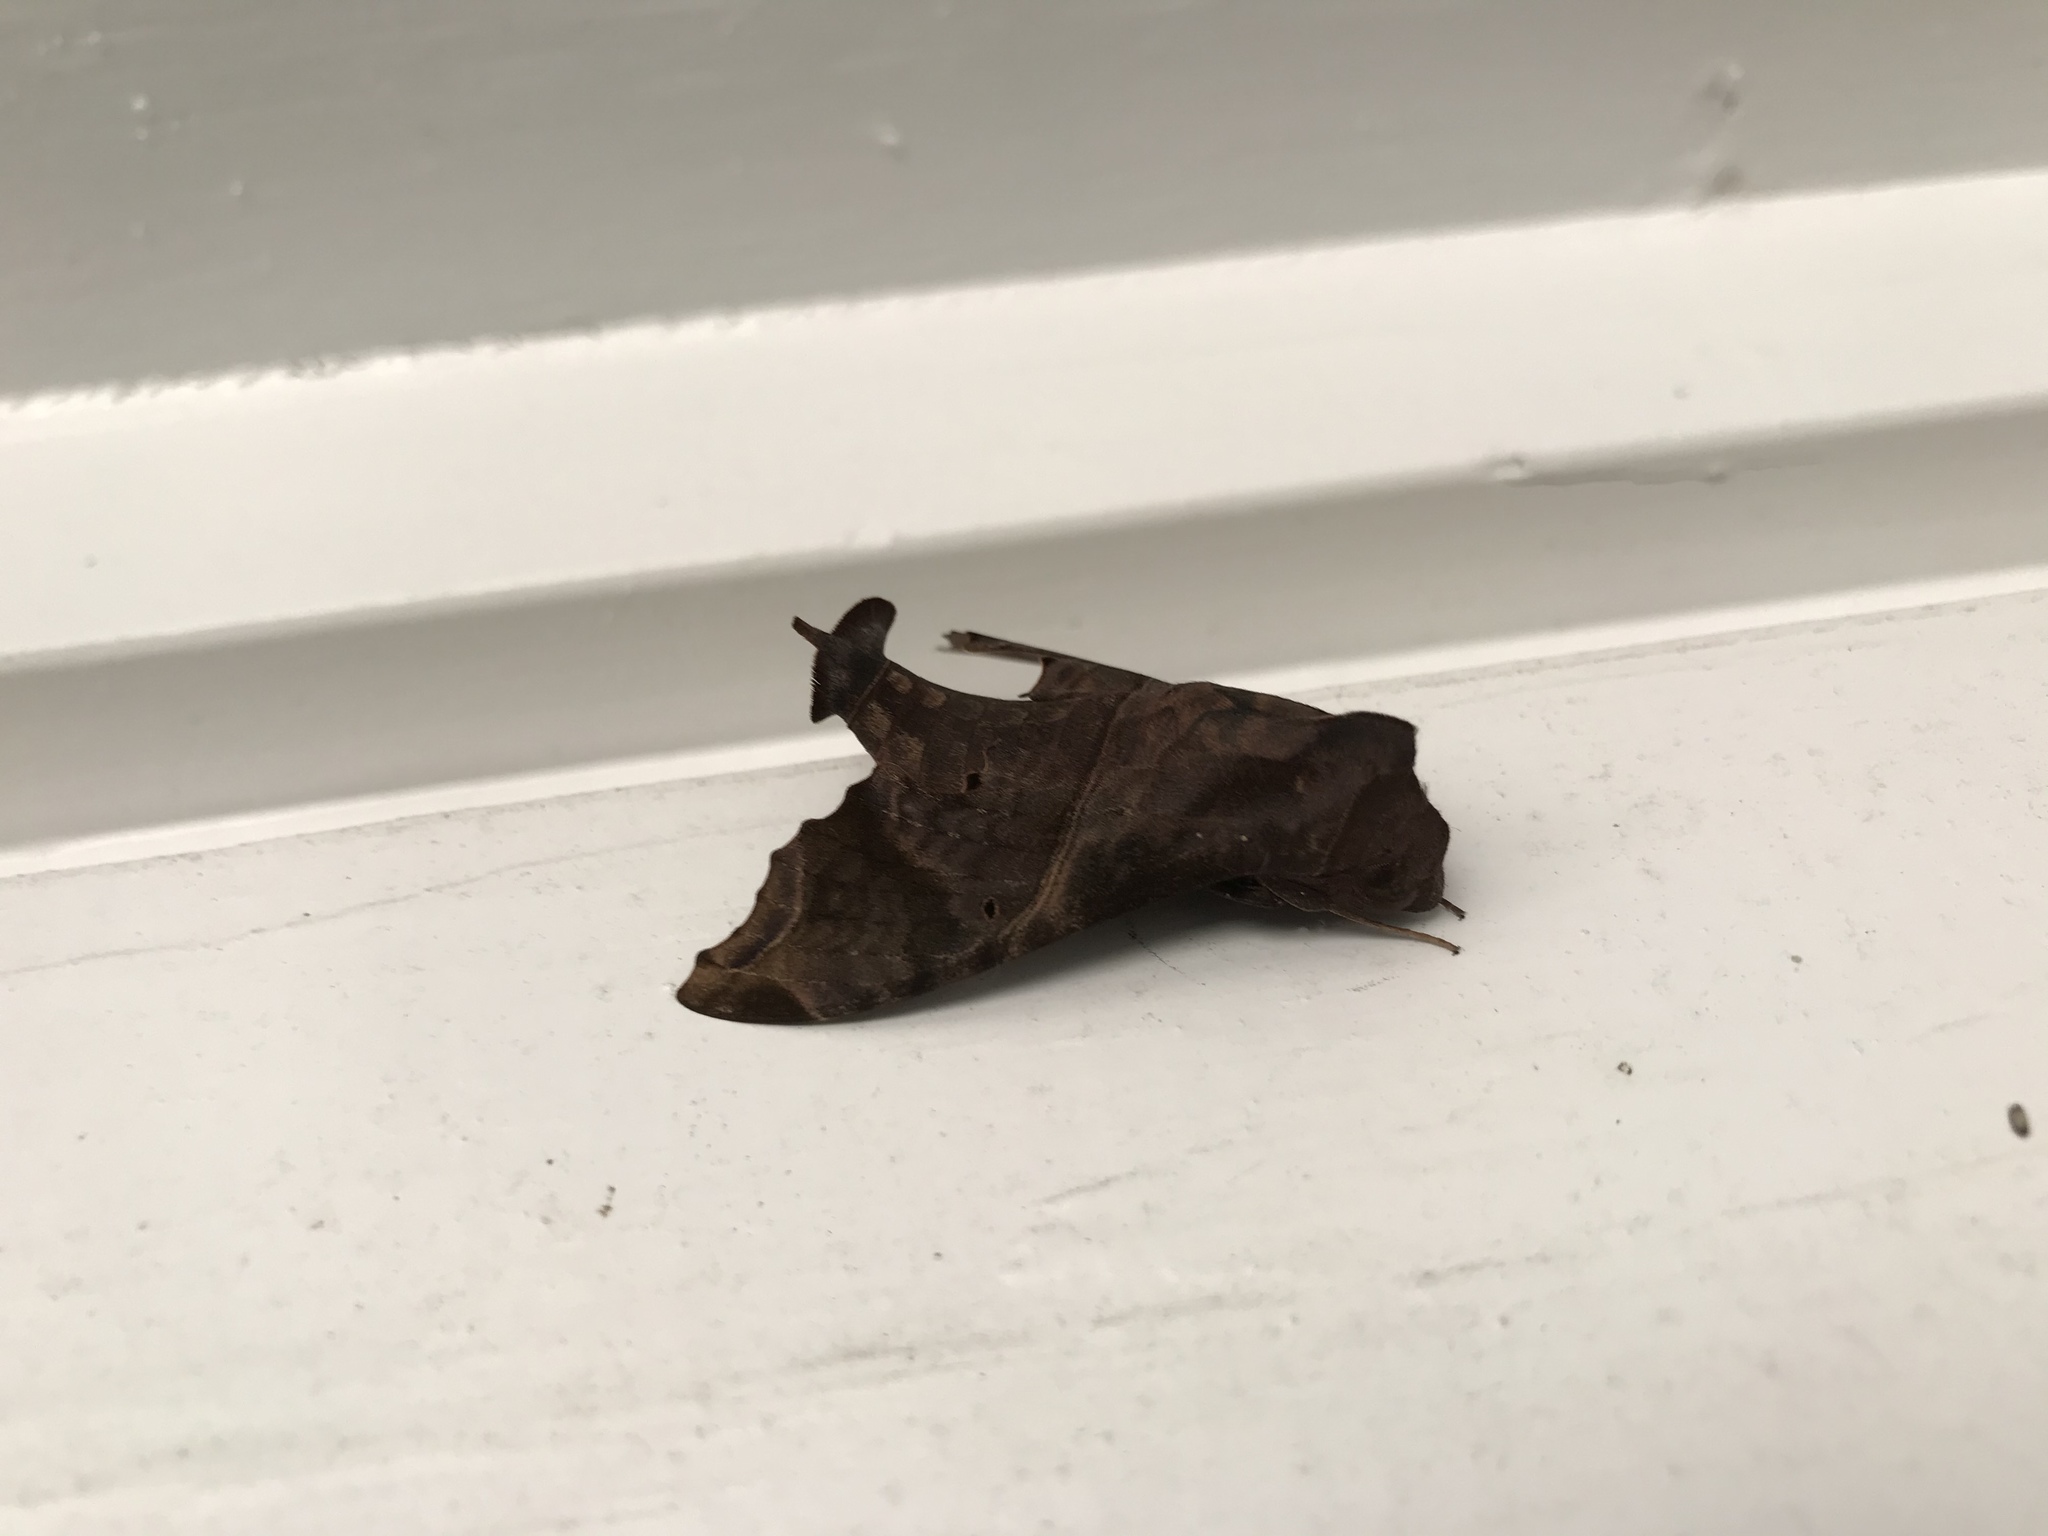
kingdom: Animalia
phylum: Arthropoda
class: Insecta
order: Lepidoptera
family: Sphingidae
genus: Enyo
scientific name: Enyo lugubris
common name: Mournful sphinx
